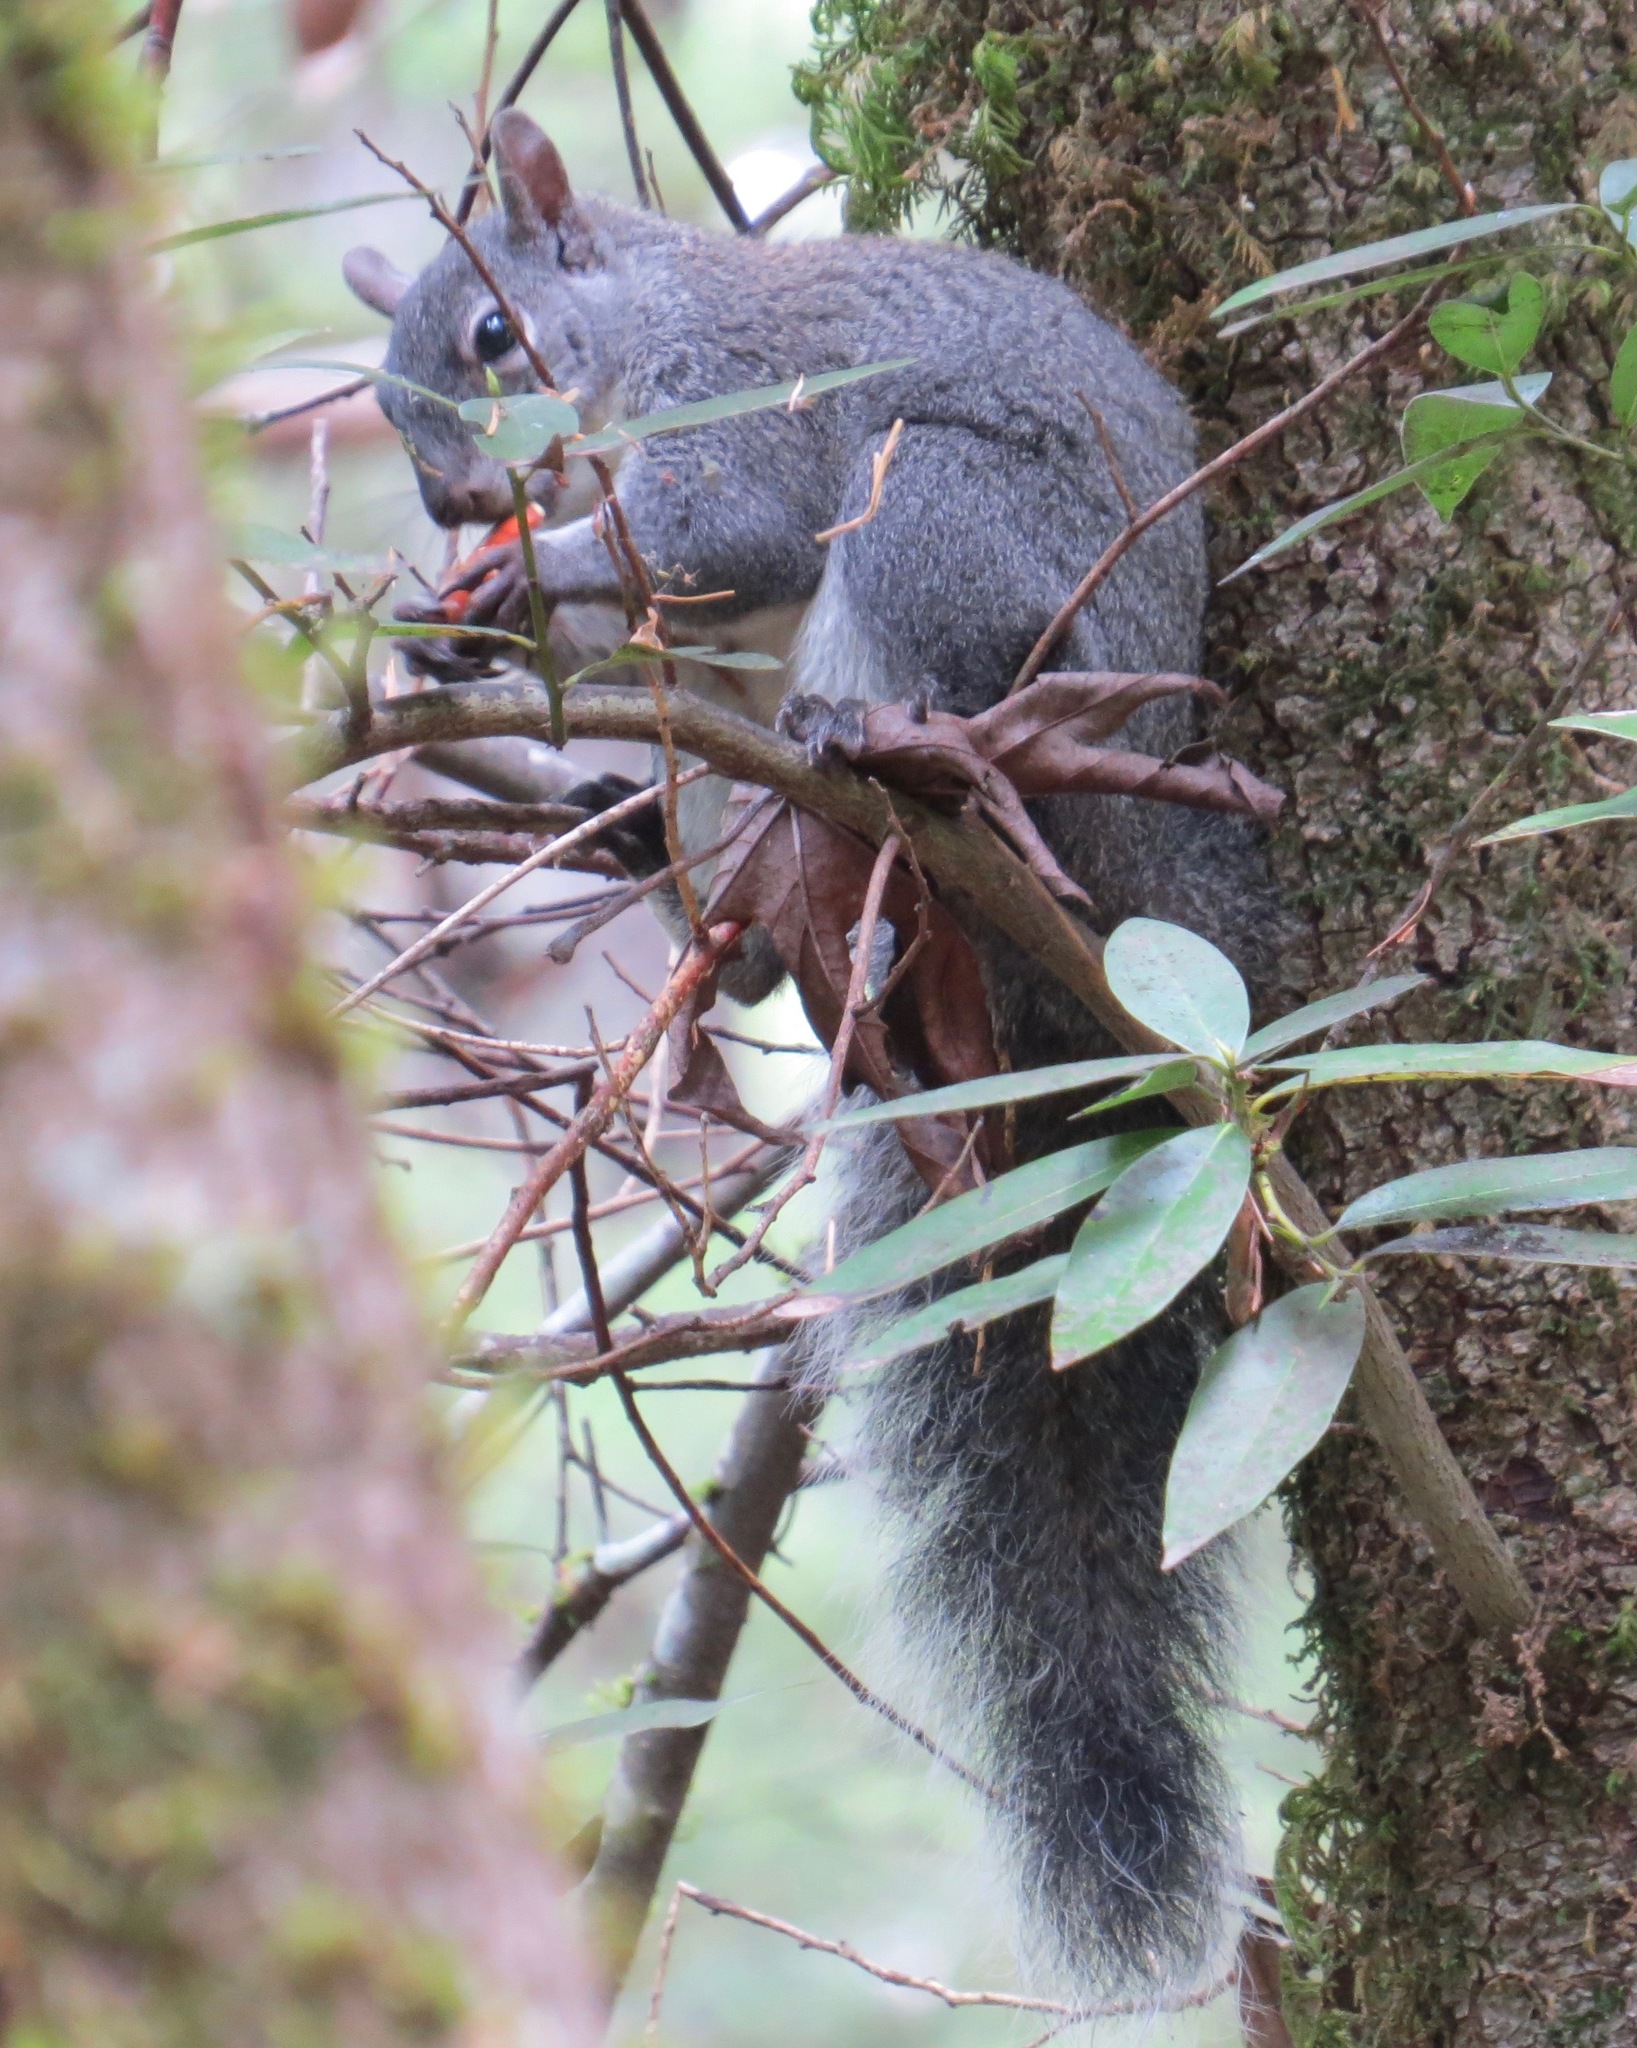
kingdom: Animalia
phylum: Chordata
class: Mammalia
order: Rodentia
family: Sciuridae
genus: Sciurus
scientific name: Sciurus griseus
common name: Western gray squirrel
